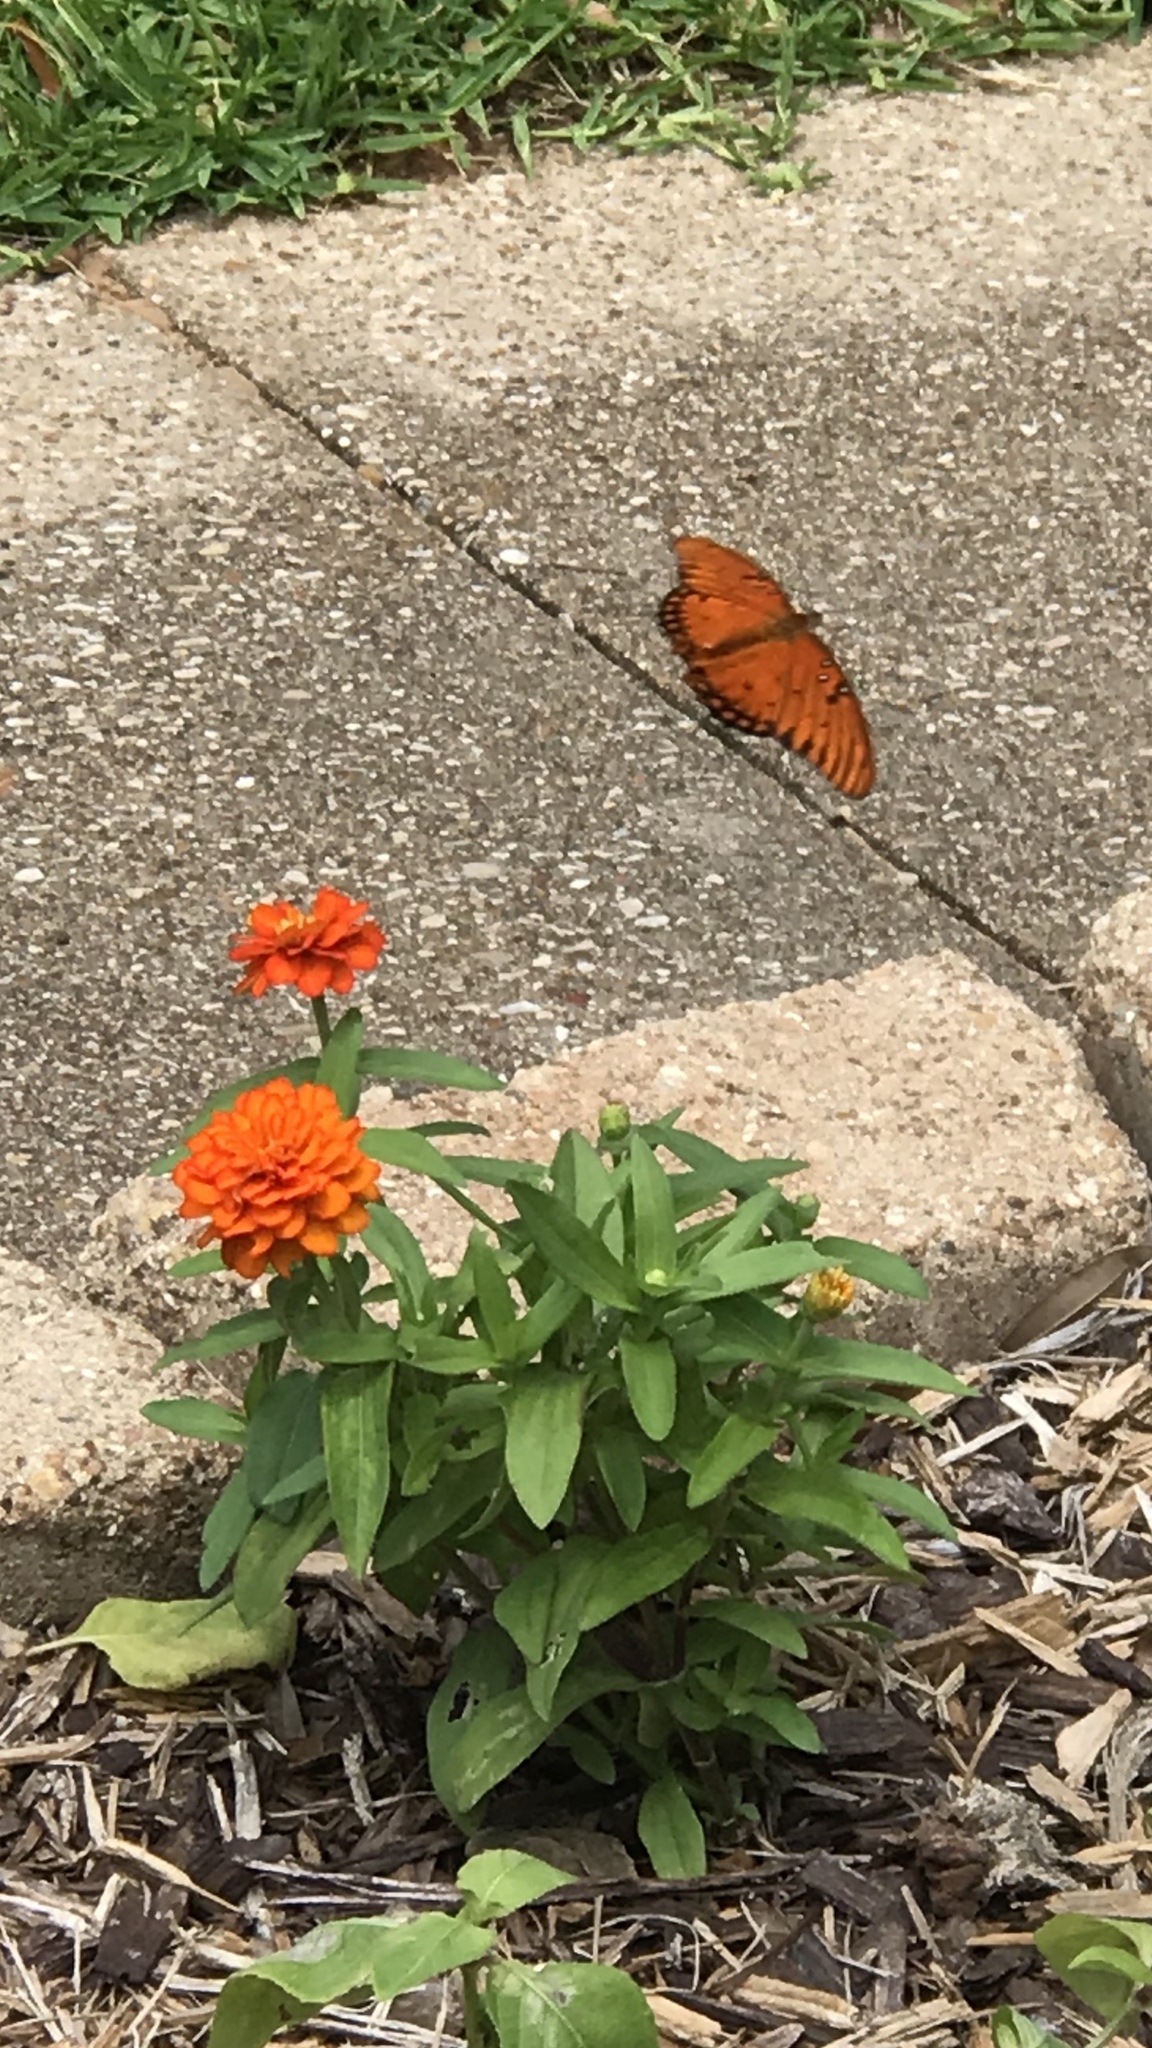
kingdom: Animalia
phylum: Arthropoda
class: Insecta
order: Lepidoptera
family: Nymphalidae
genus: Dione
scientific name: Dione vanillae
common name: Gulf fritillary
